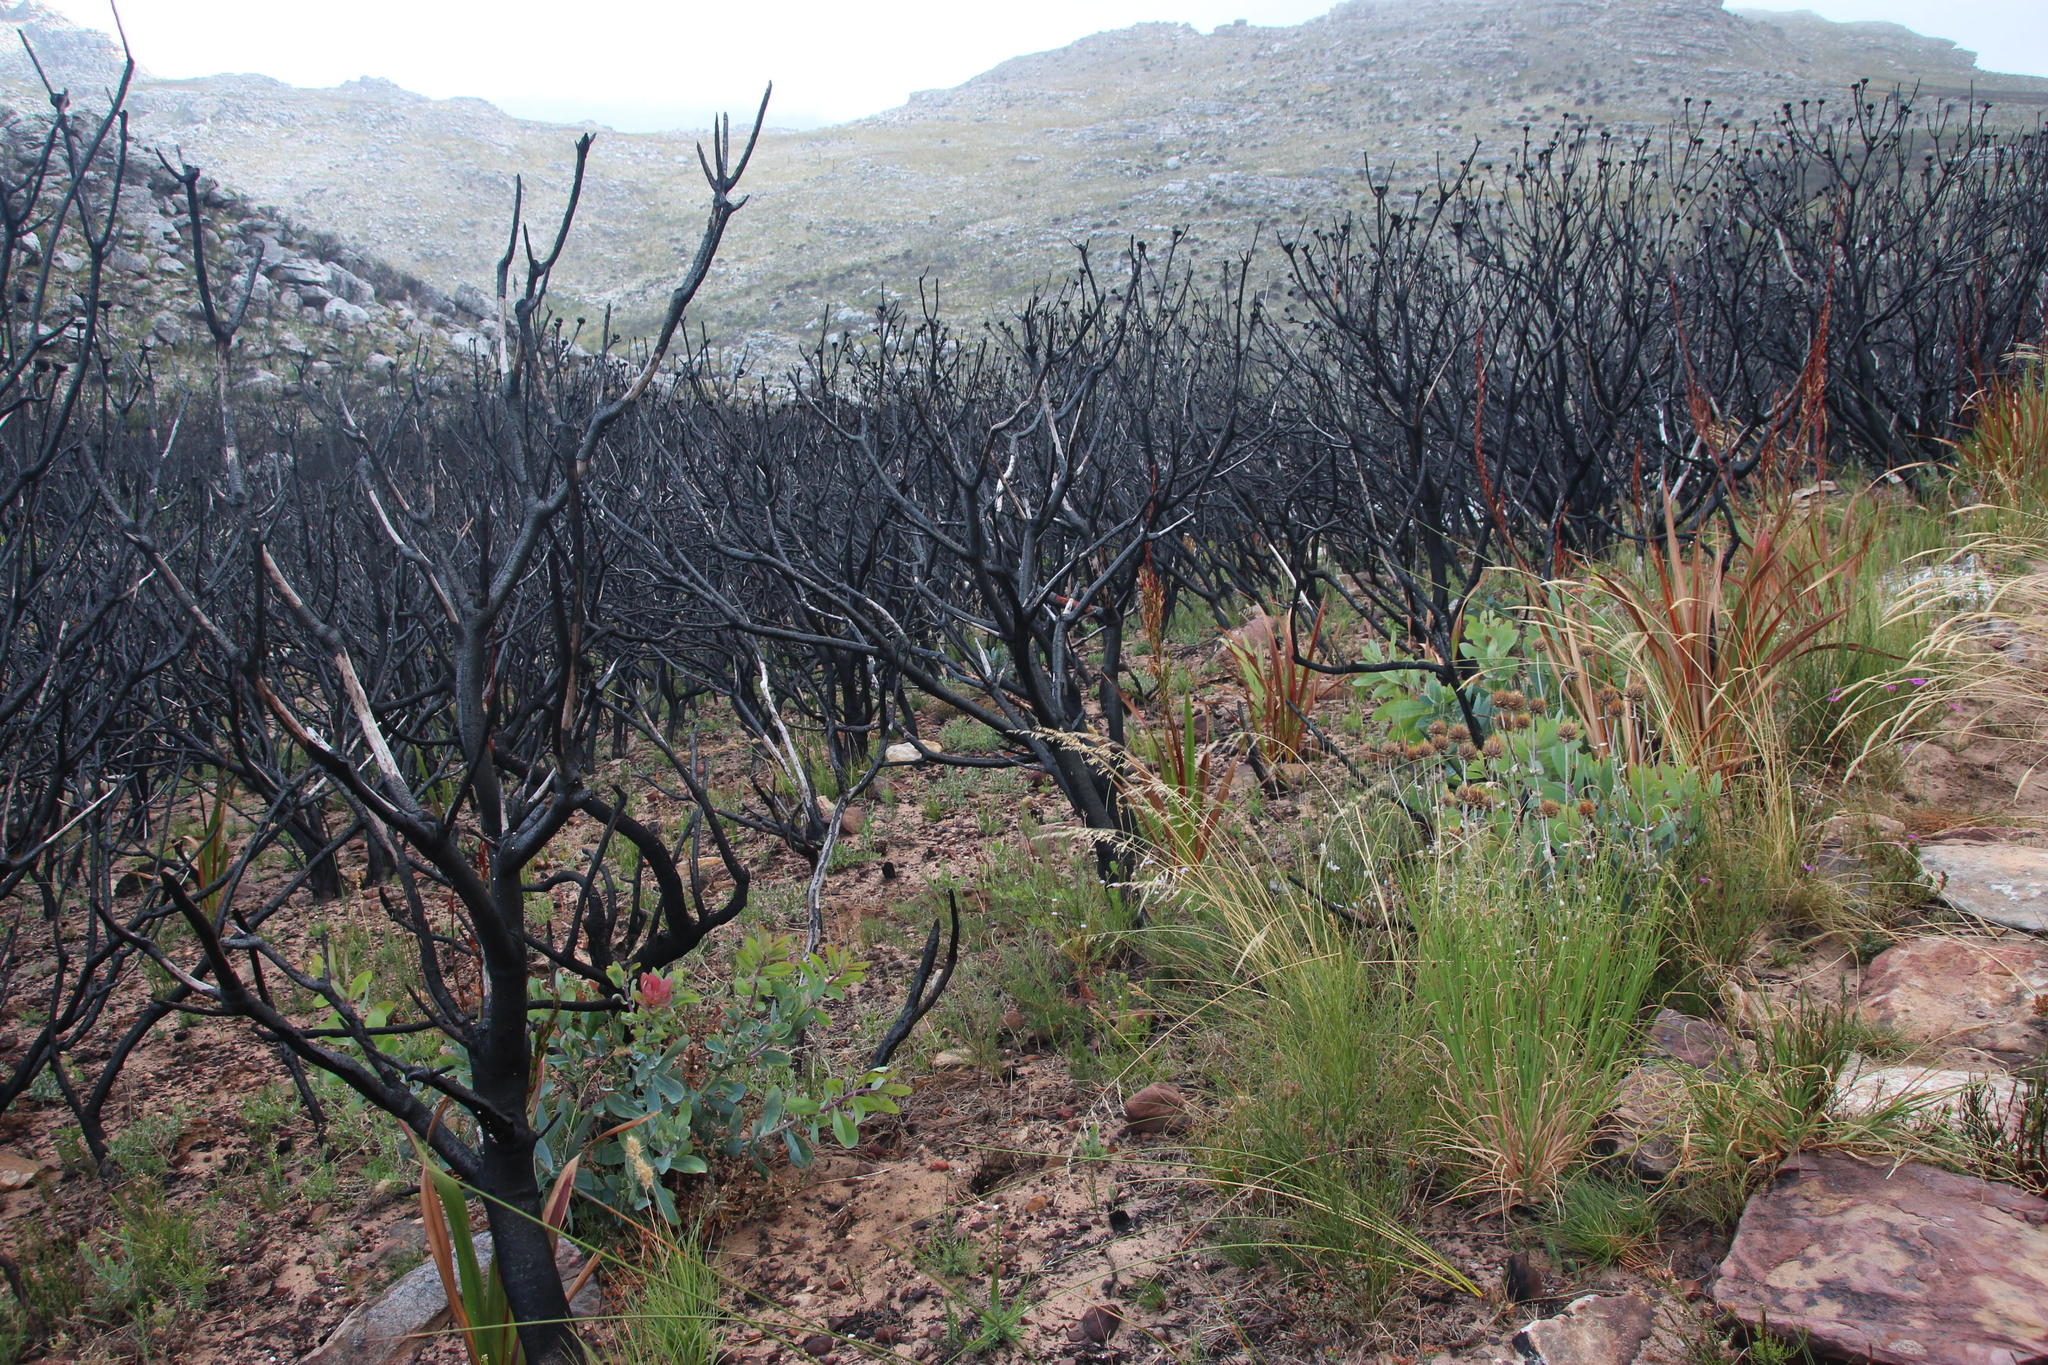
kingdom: Plantae
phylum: Tracheophyta
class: Magnoliopsida
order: Proteales
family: Proteaceae
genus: Protea
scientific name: Protea lepidocarpodendron
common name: Black-bearded protea
